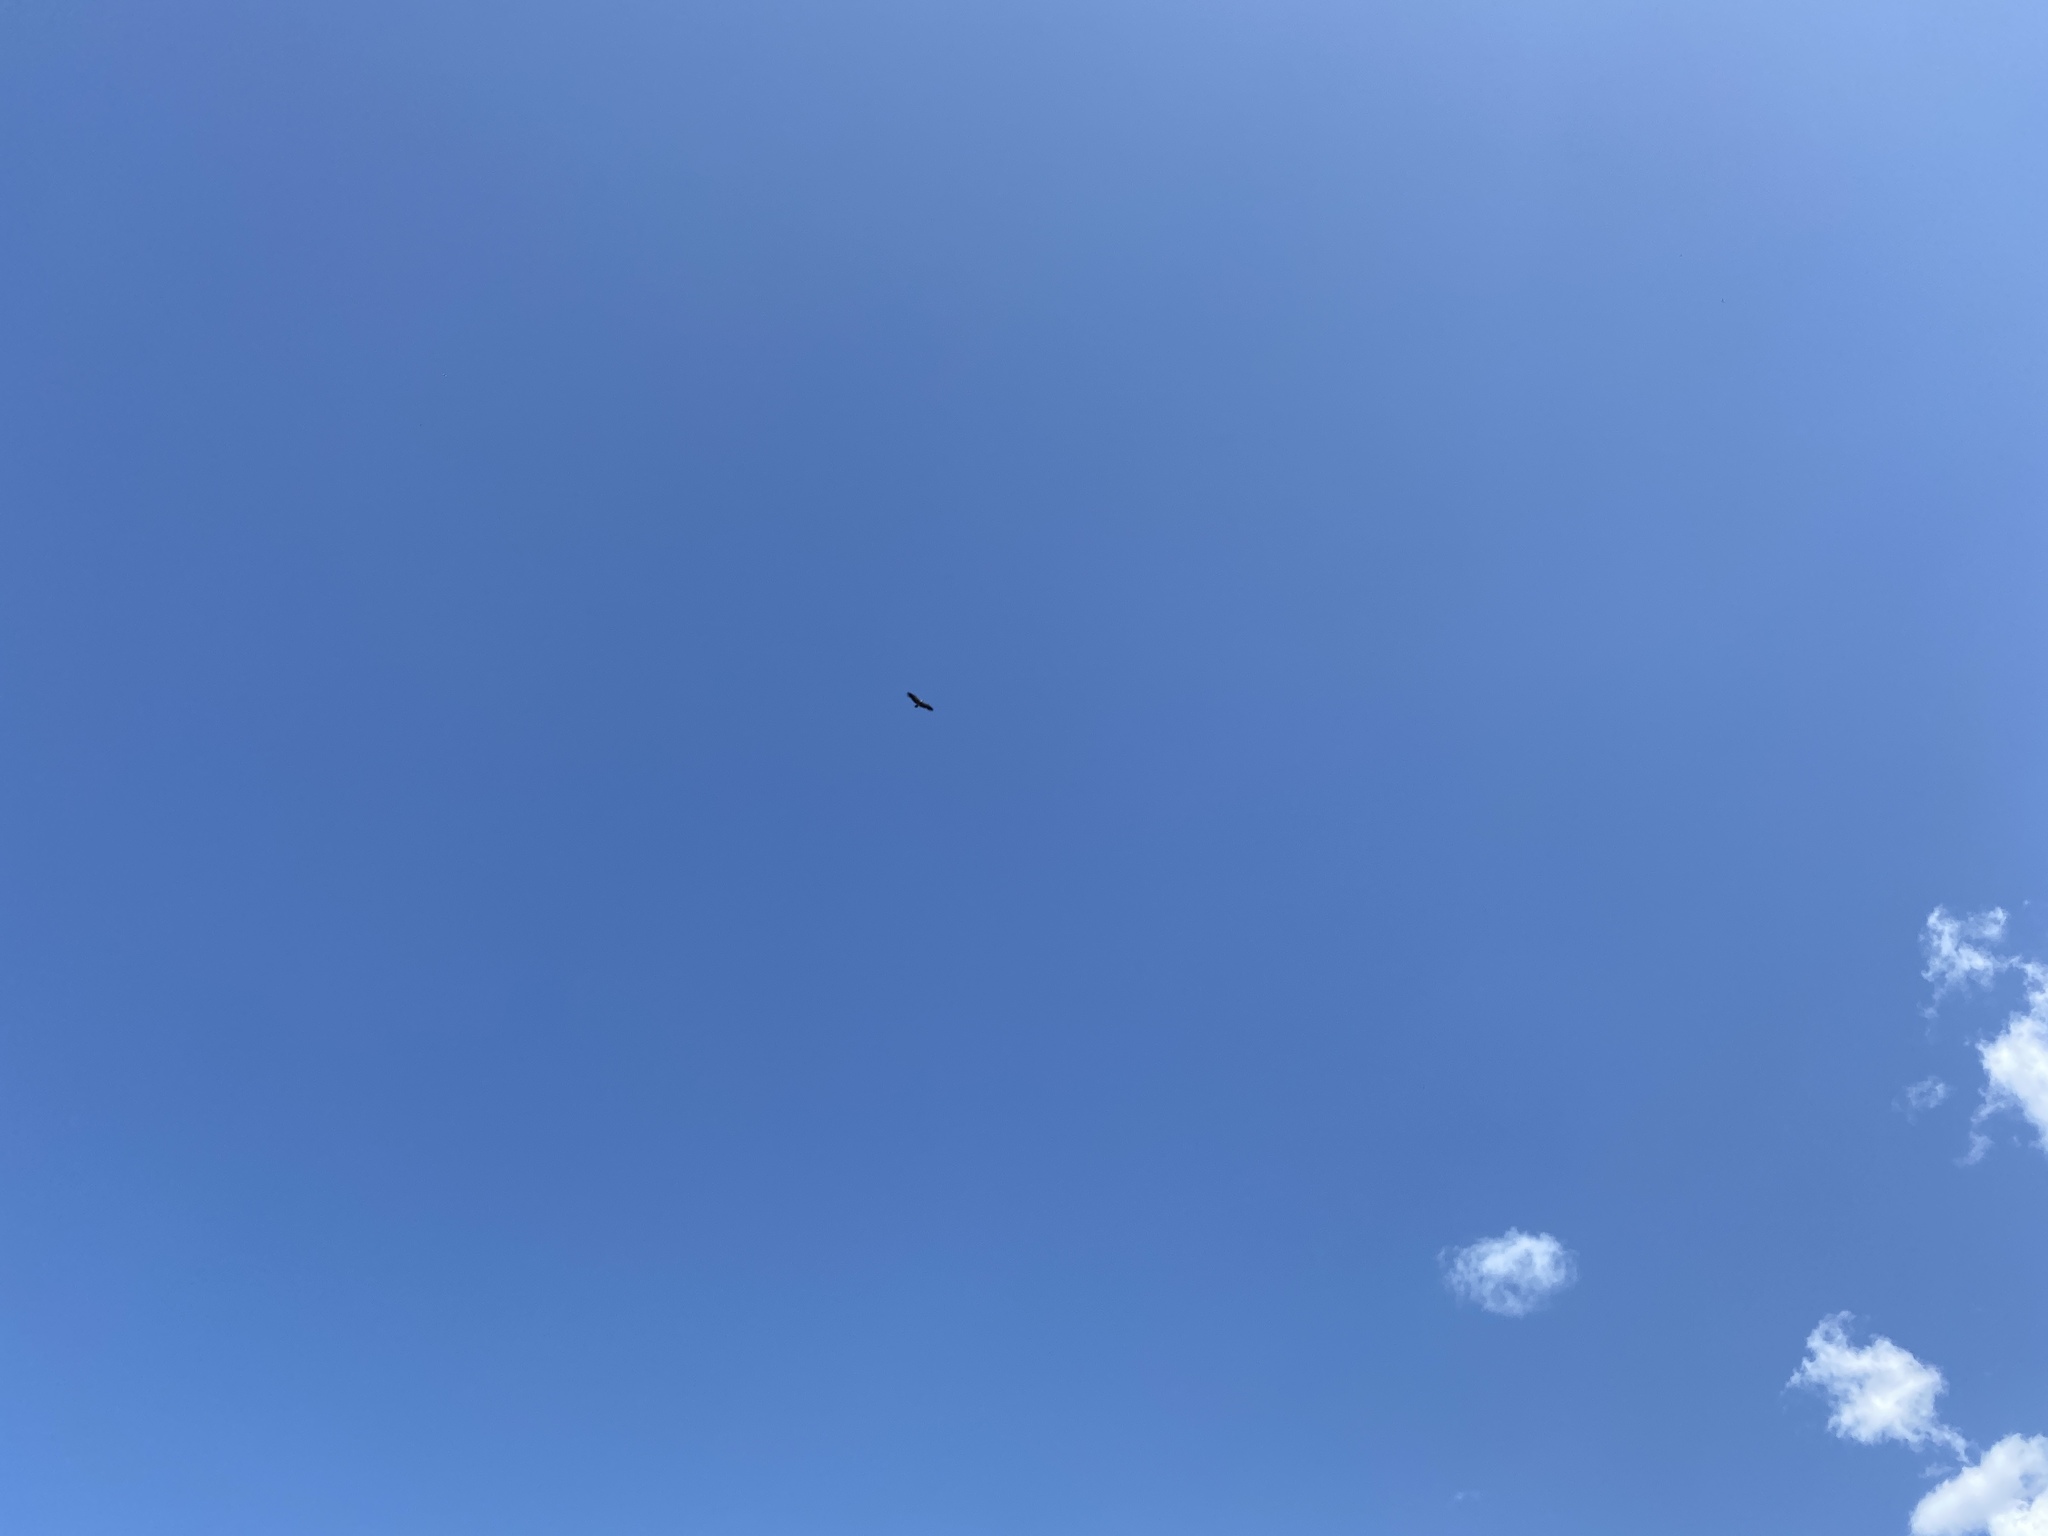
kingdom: Animalia
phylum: Chordata
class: Aves
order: Accipitriformes
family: Accipitridae
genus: Gyps
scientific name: Gyps fulvus
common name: Griffon vulture
